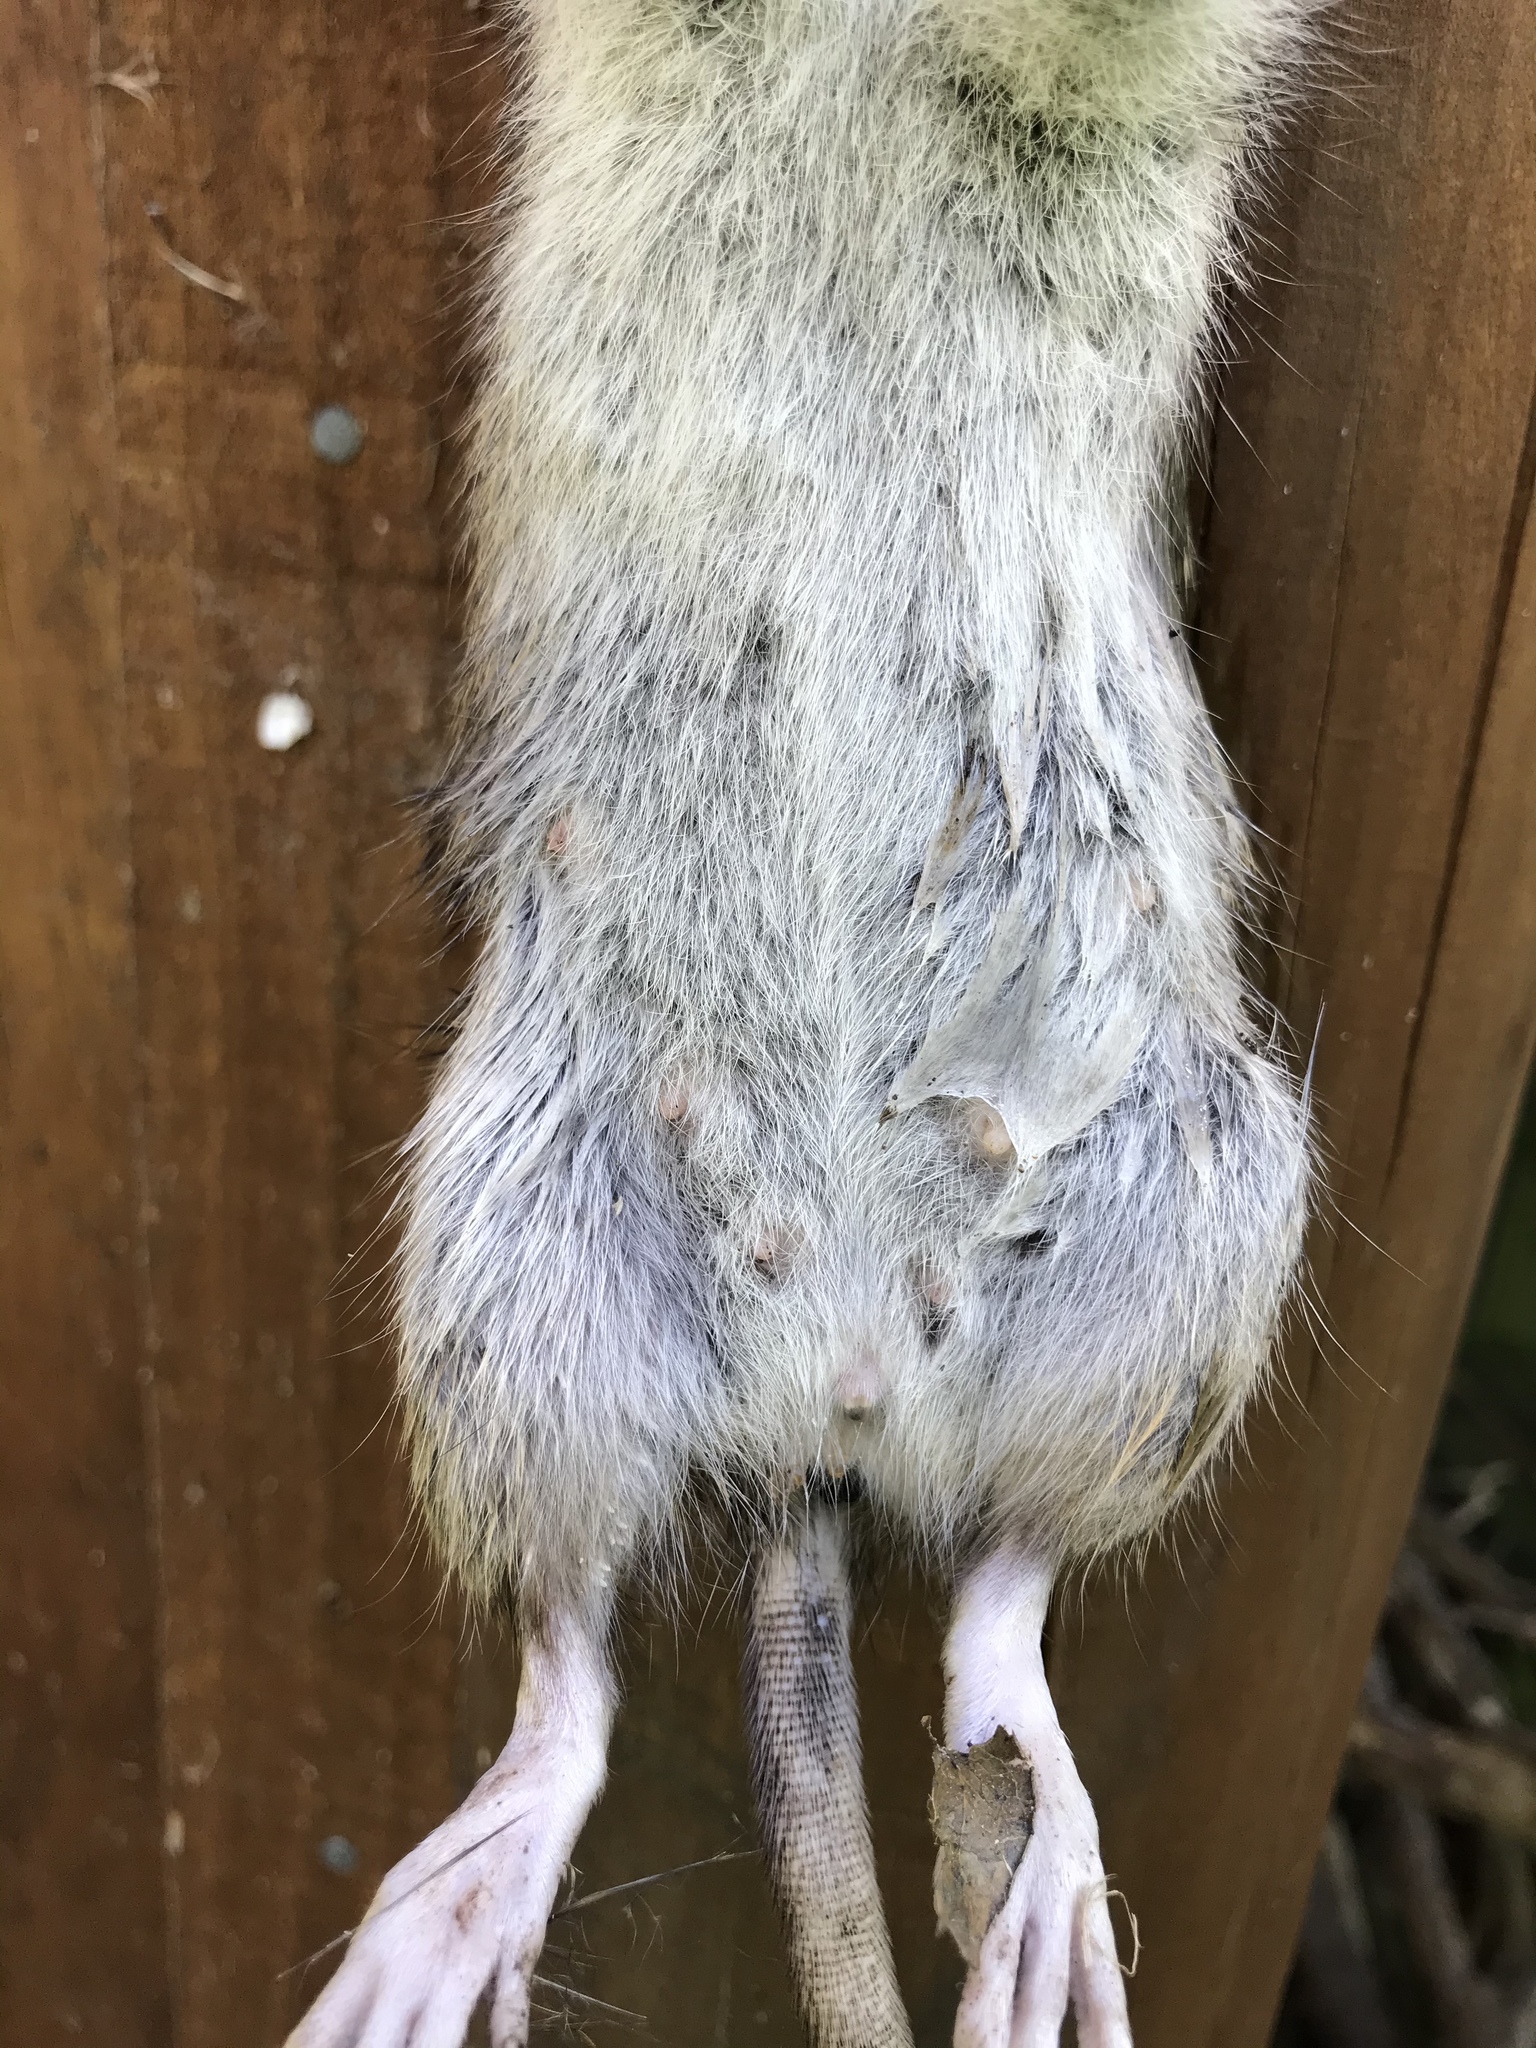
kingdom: Animalia
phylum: Chordata
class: Mammalia
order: Rodentia
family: Muridae
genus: Rattus
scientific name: Rattus norvegicus
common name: Brown rat
